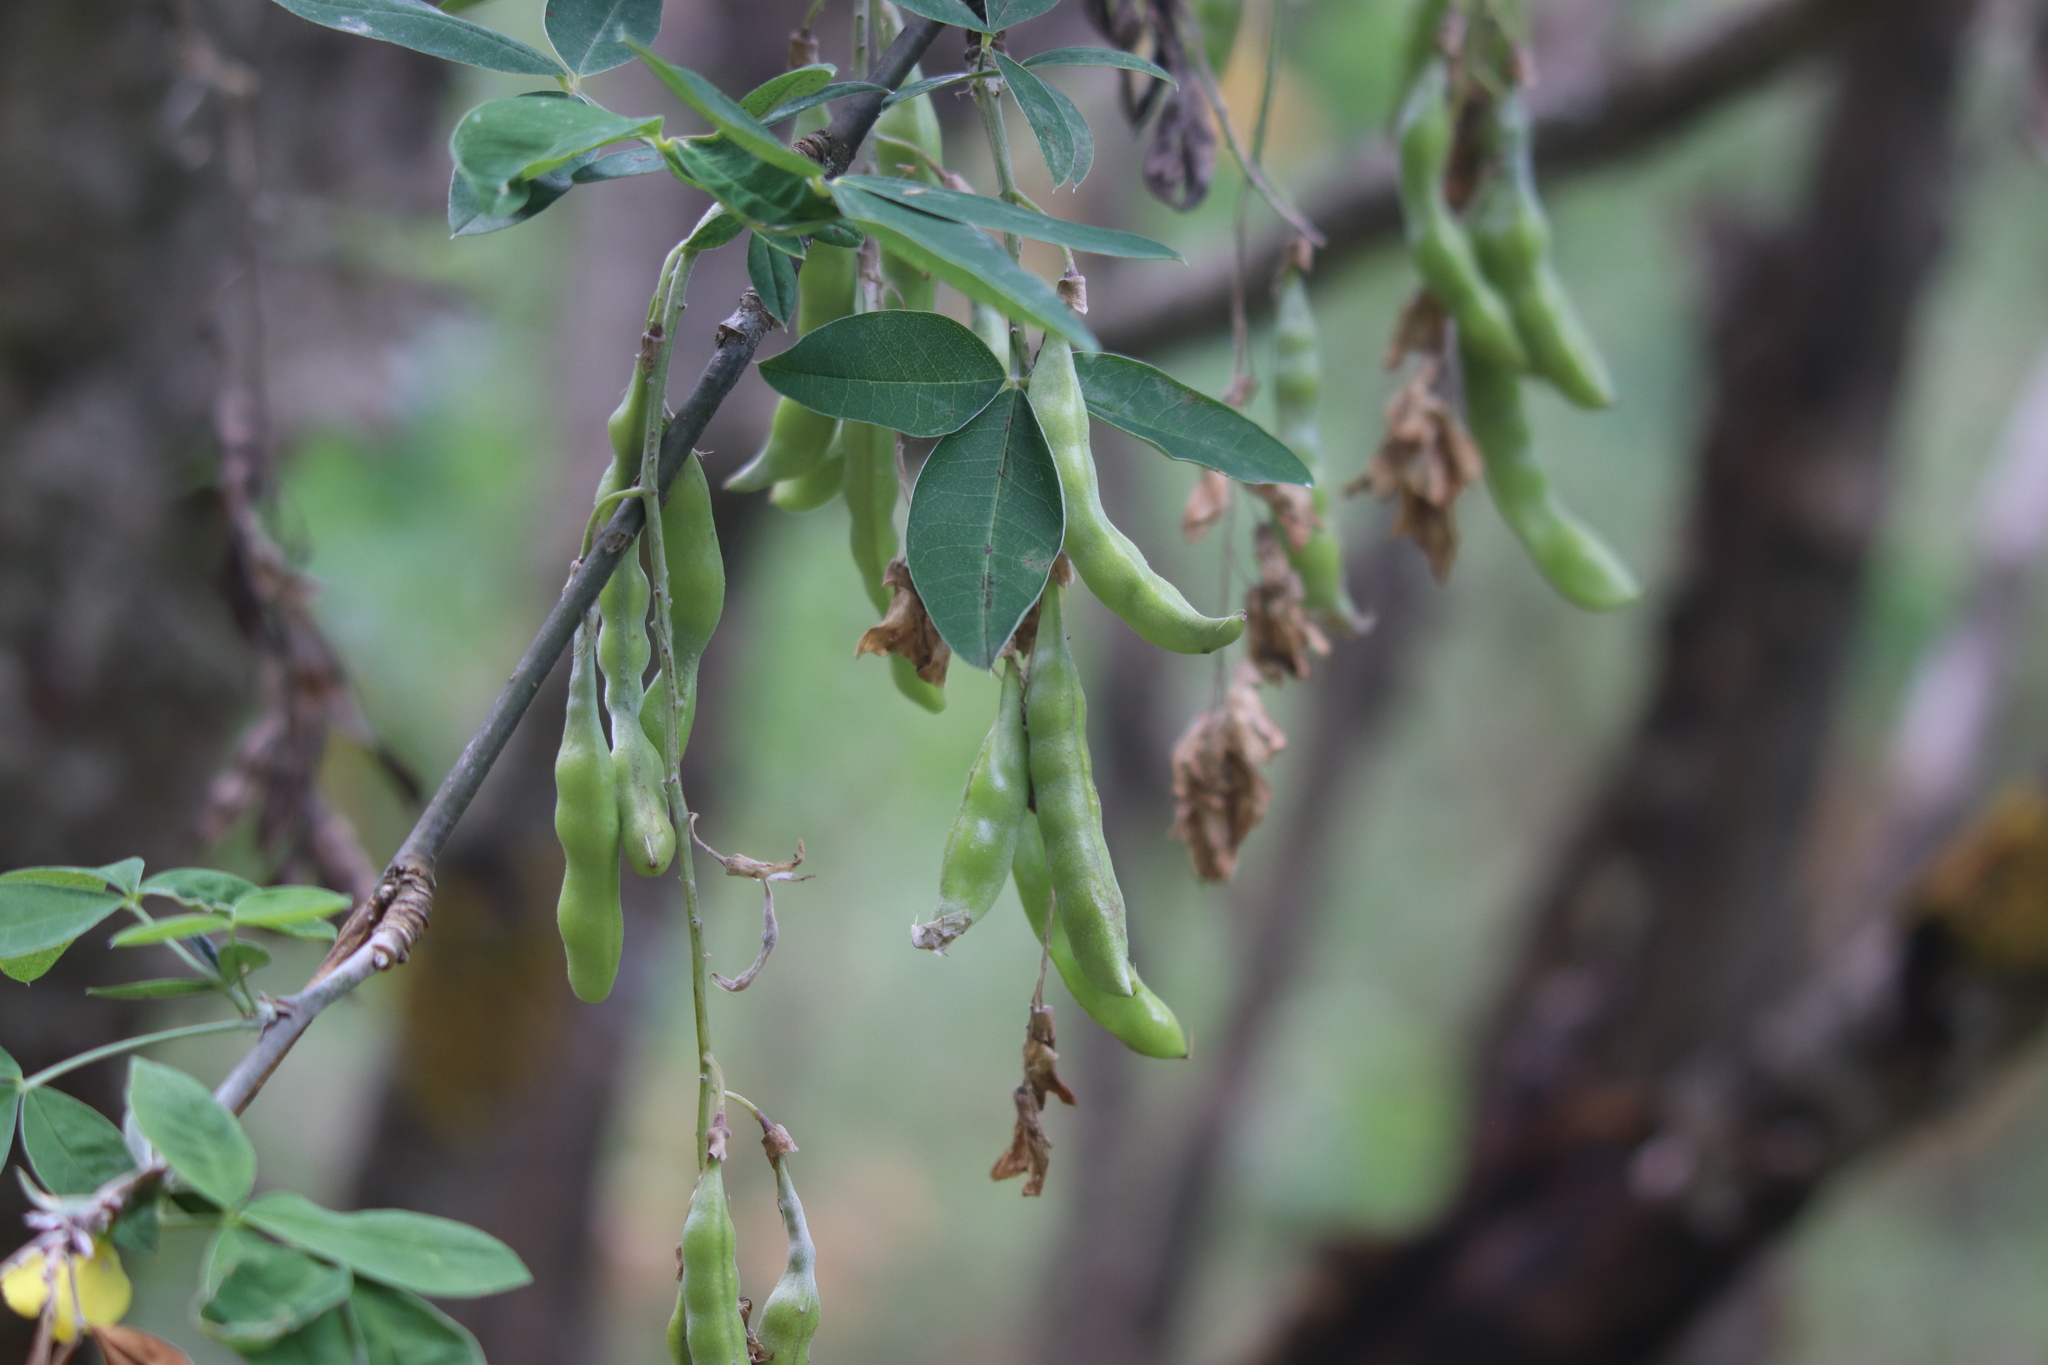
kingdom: Plantae
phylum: Tracheophyta
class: Magnoliopsida
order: Fabales
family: Fabaceae
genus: Laburnum
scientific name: Laburnum anagyroides
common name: Laburnum
